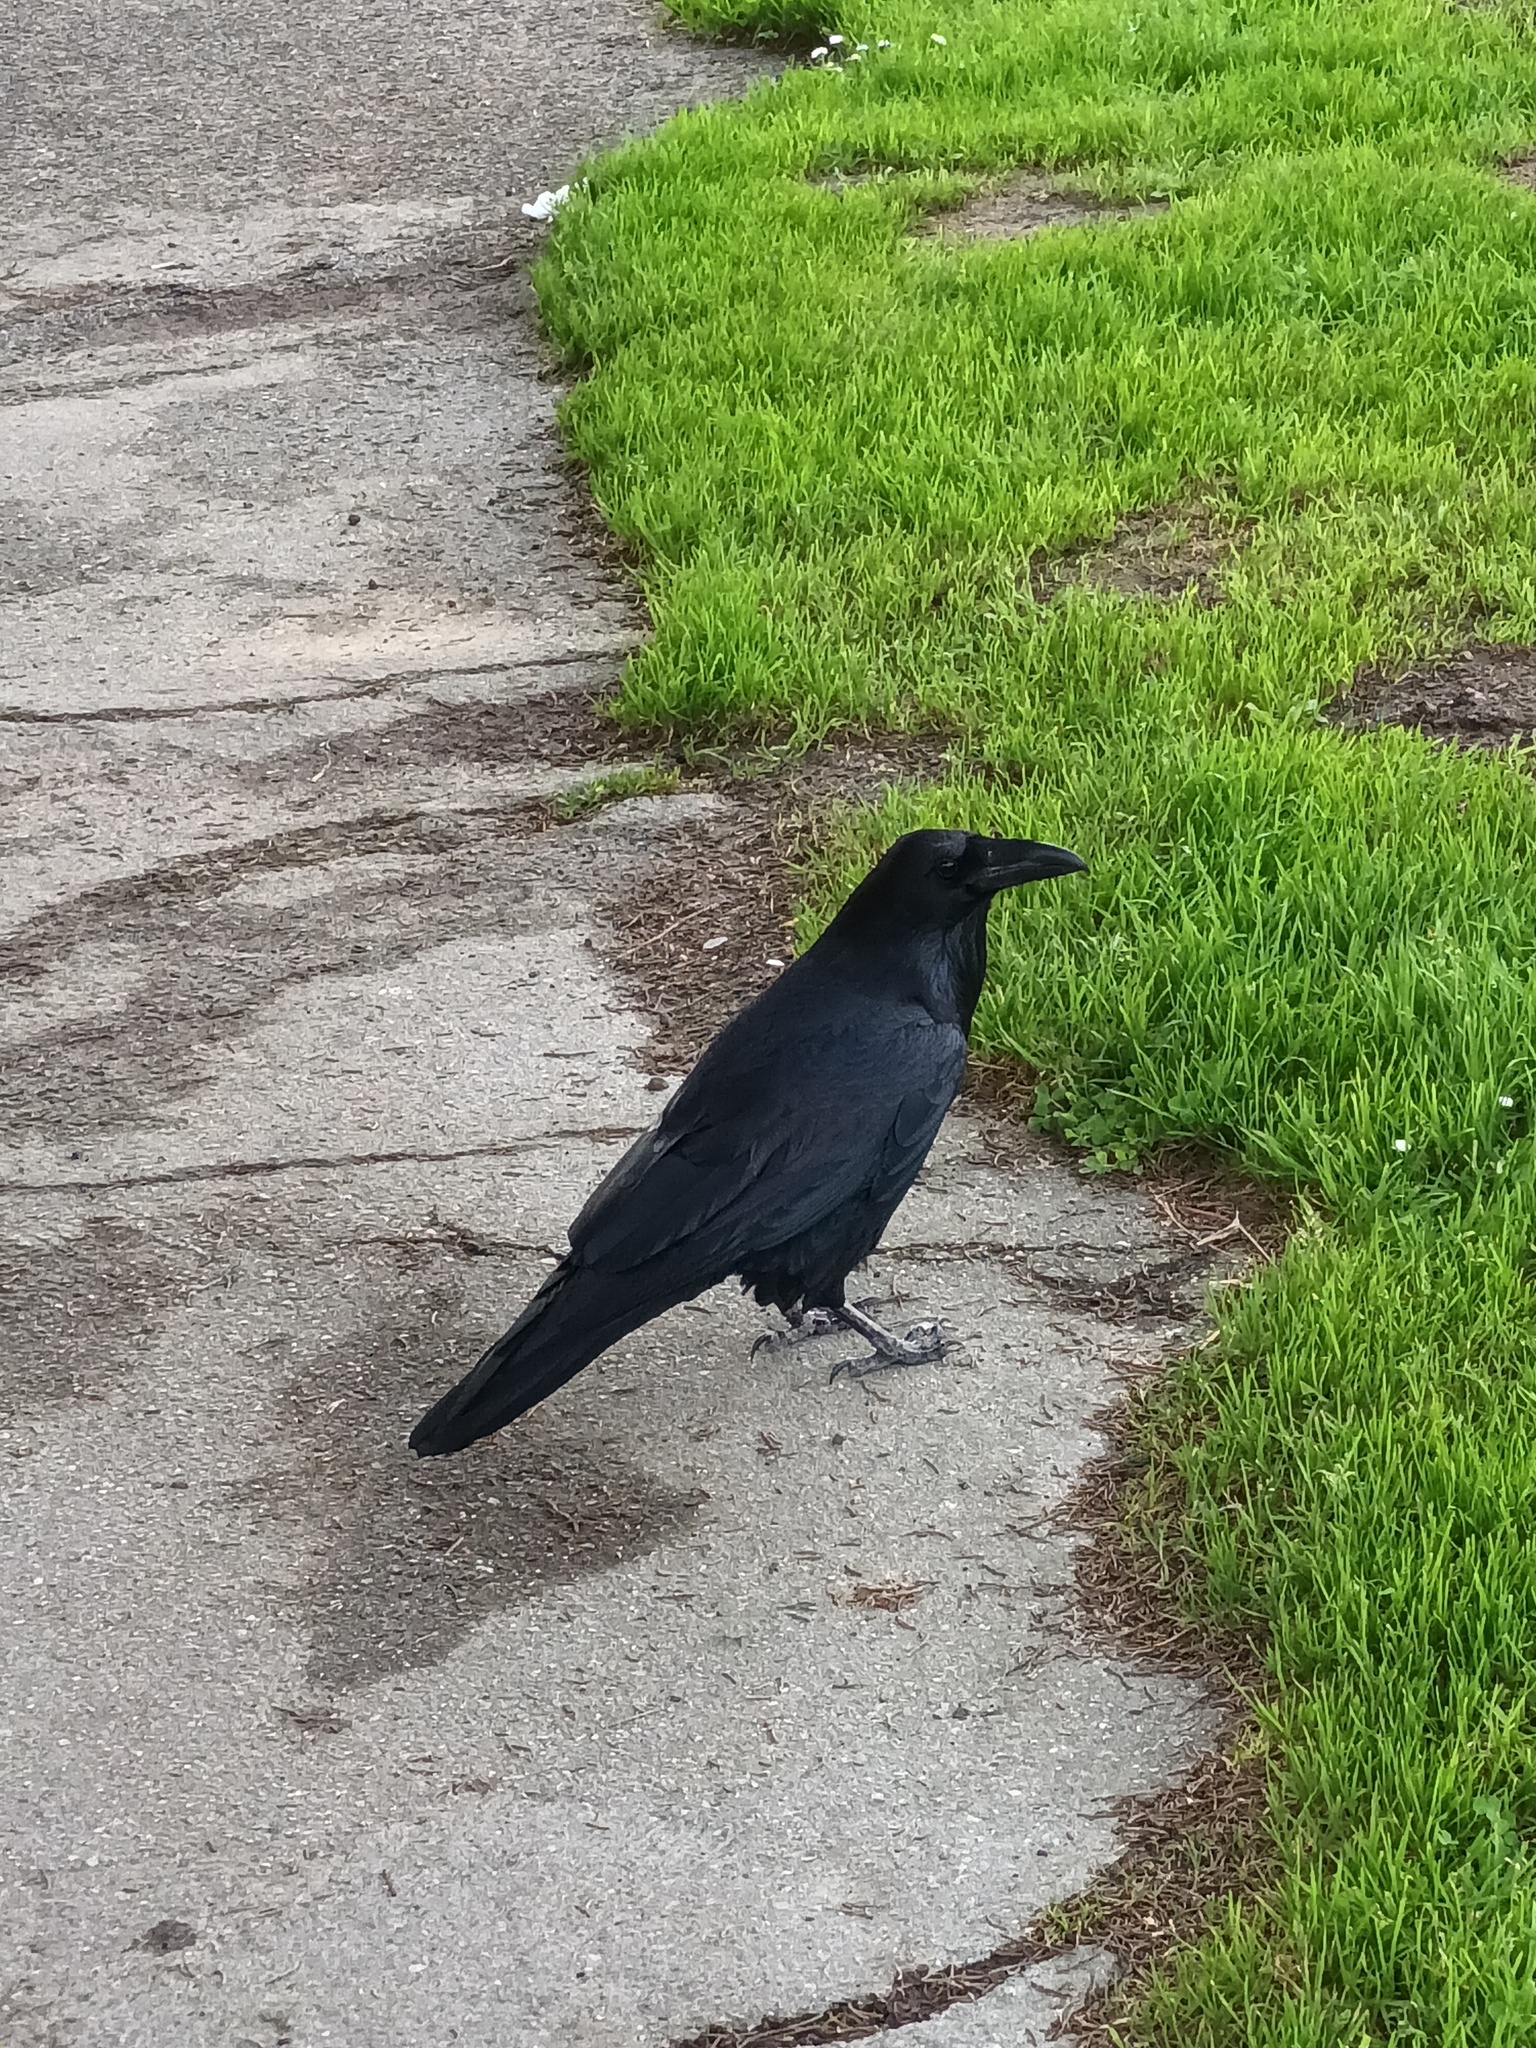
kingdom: Animalia
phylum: Chordata
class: Aves
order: Passeriformes
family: Corvidae
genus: Corvus
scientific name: Corvus corax
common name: Common raven
